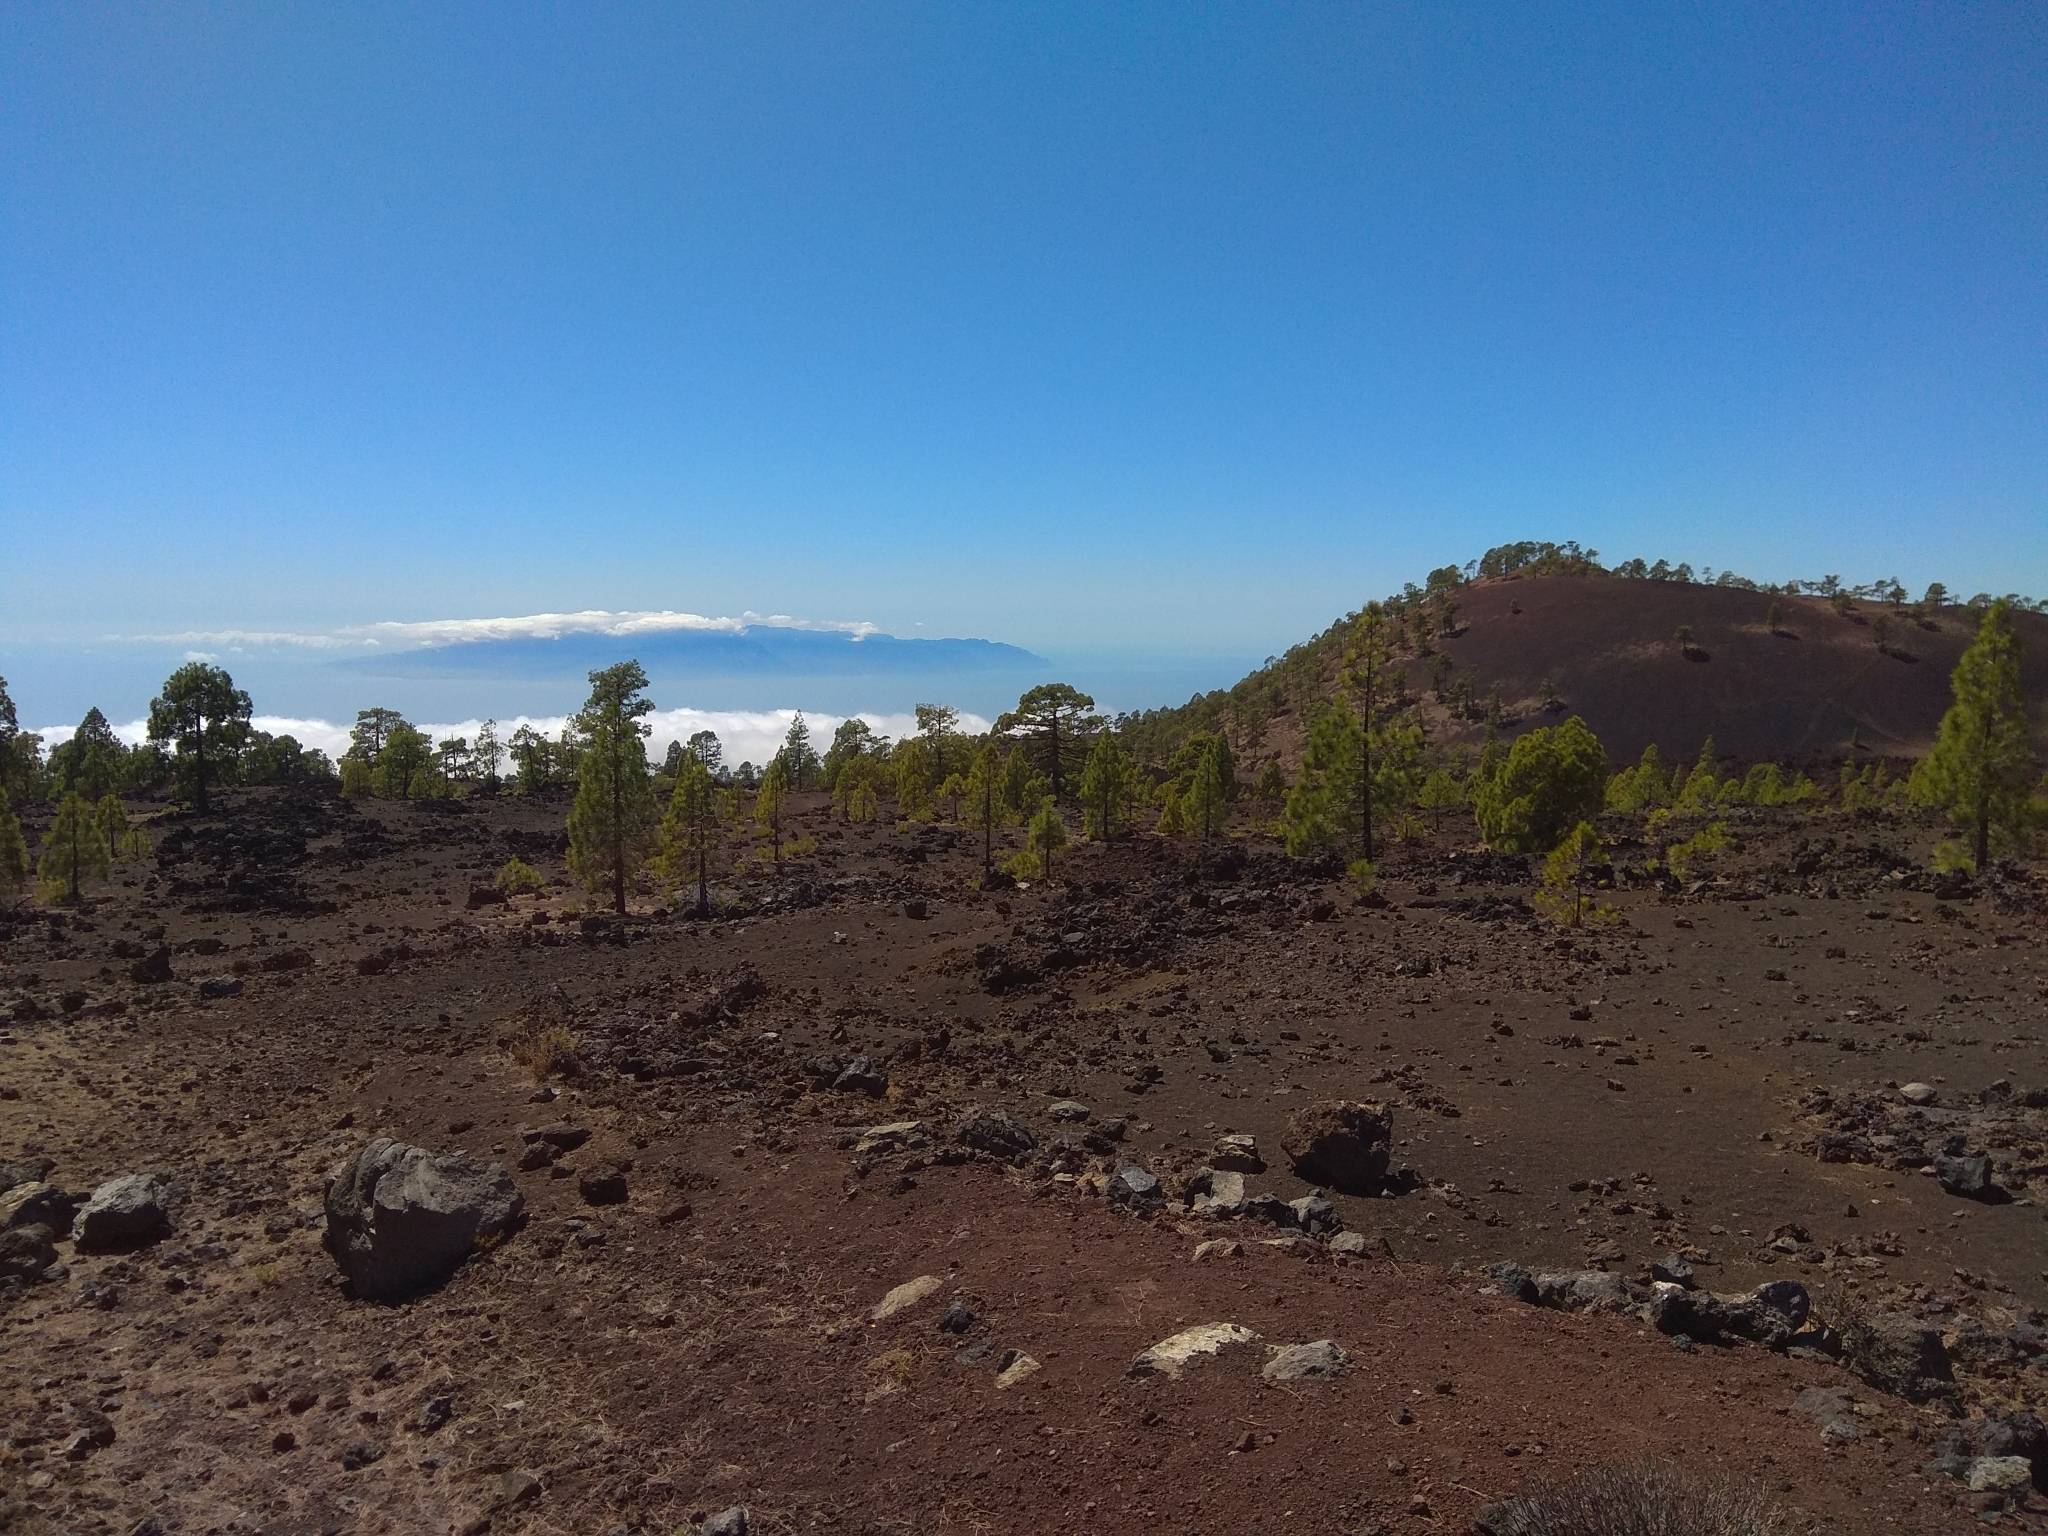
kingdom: Plantae
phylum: Tracheophyta
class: Pinopsida
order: Pinales
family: Pinaceae
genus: Pinus
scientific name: Pinus canariensis
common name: Canary islands pine
